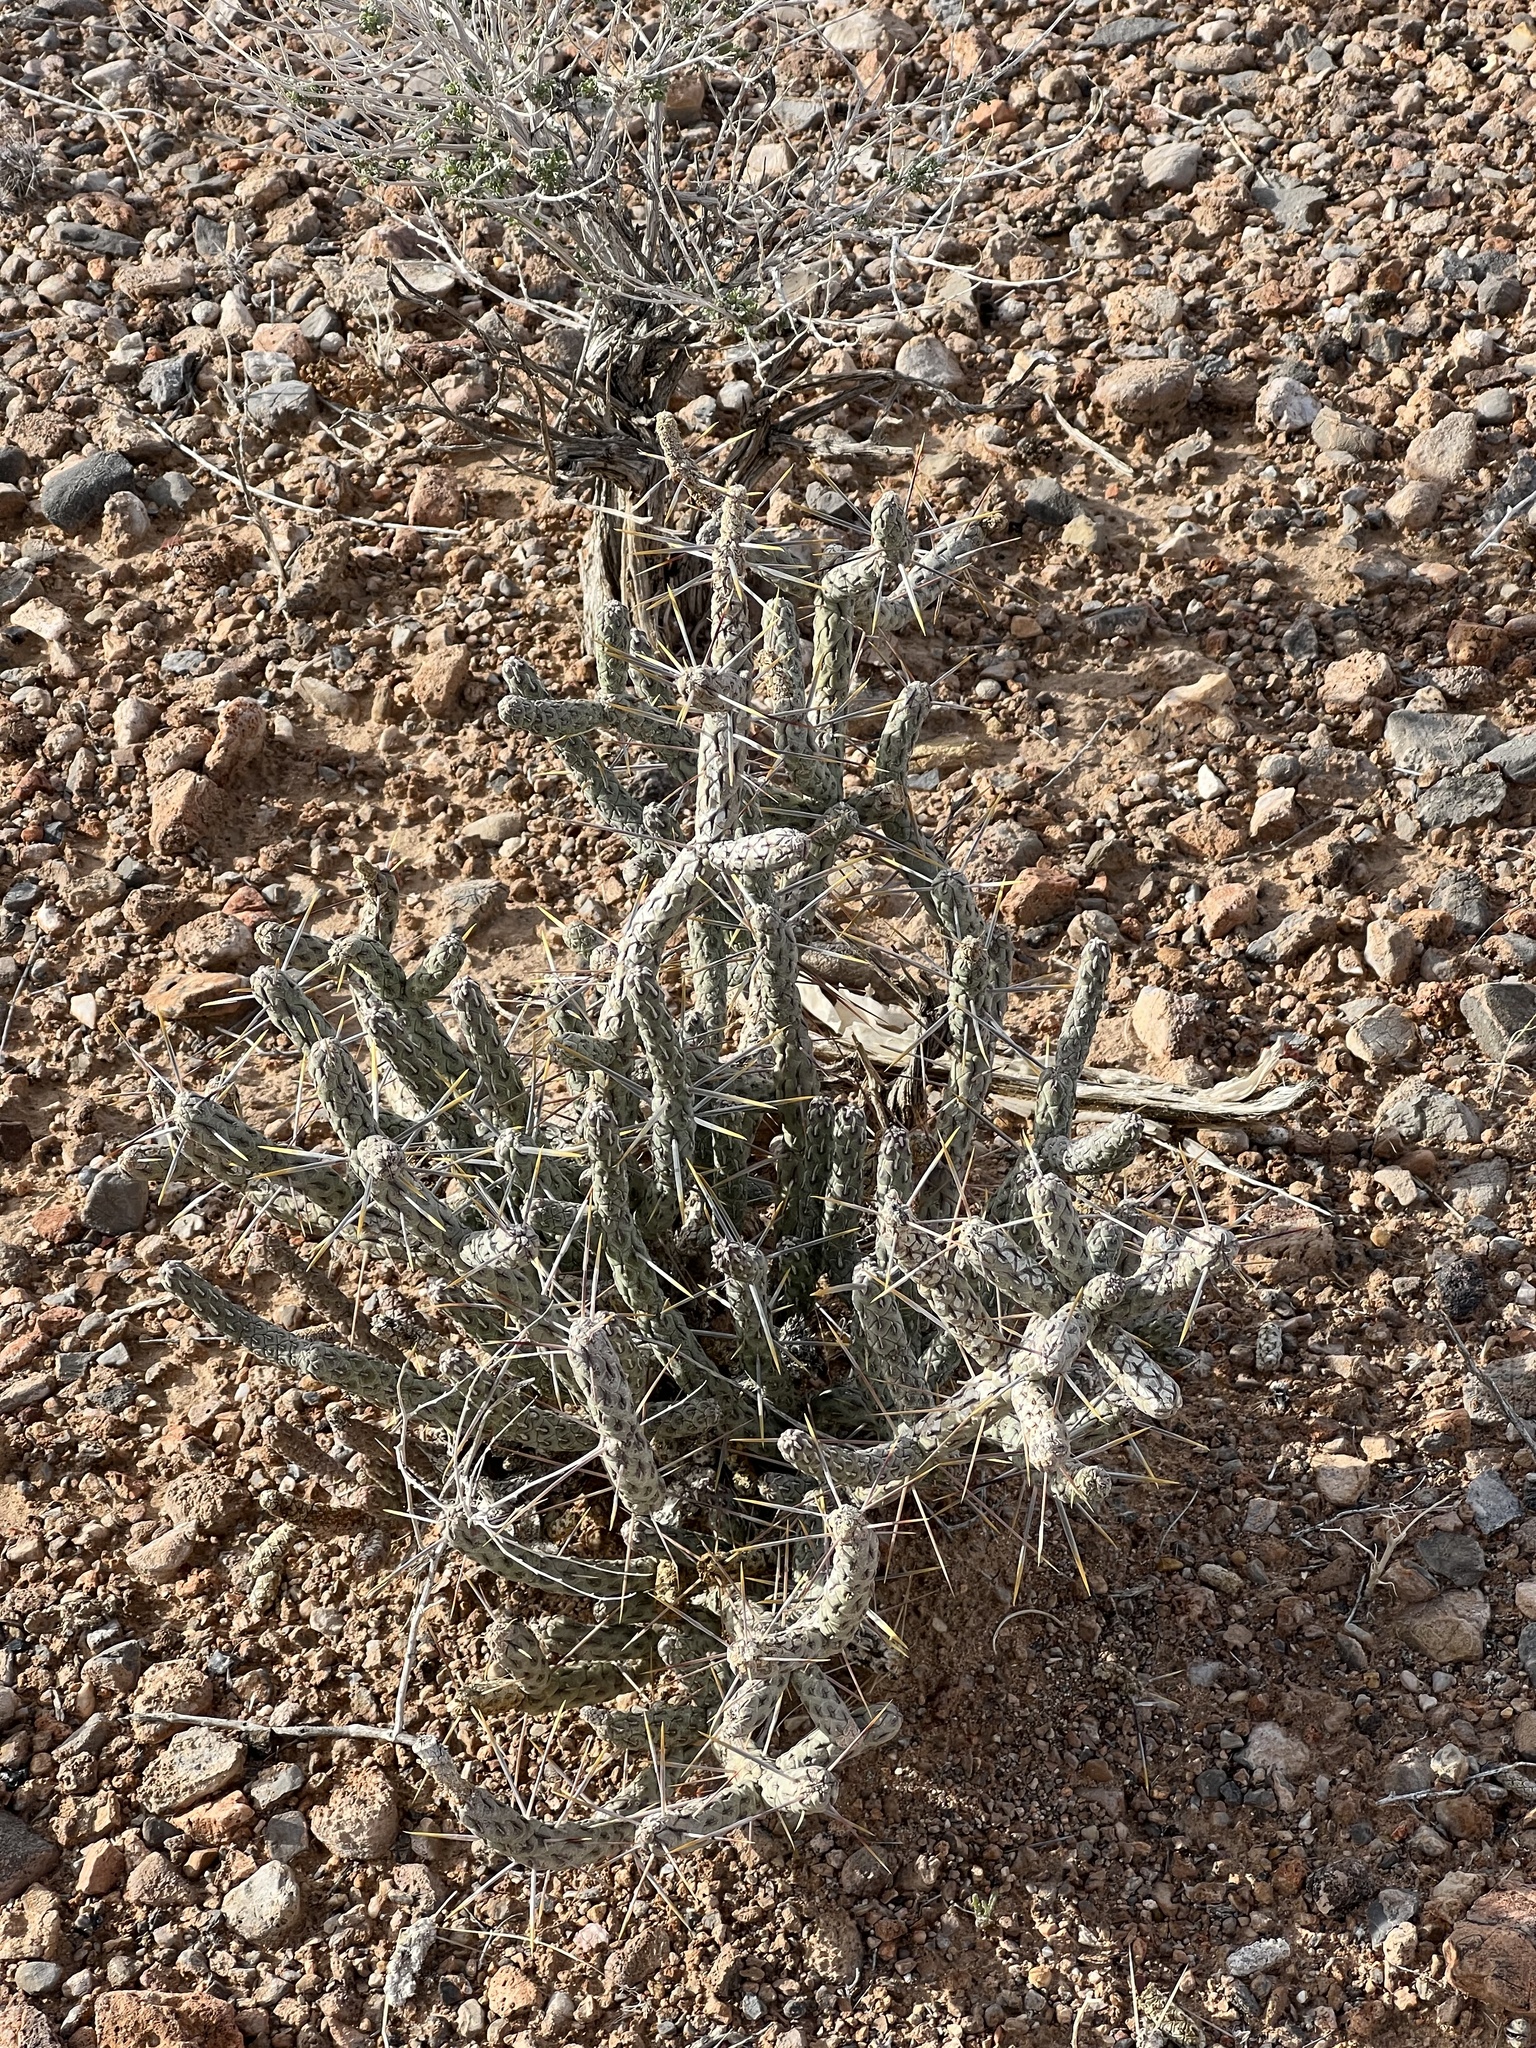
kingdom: Plantae
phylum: Tracheophyta
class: Magnoliopsida
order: Caryophyllales
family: Cactaceae
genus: Cylindropuntia
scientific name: Cylindropuntia ramosissima
